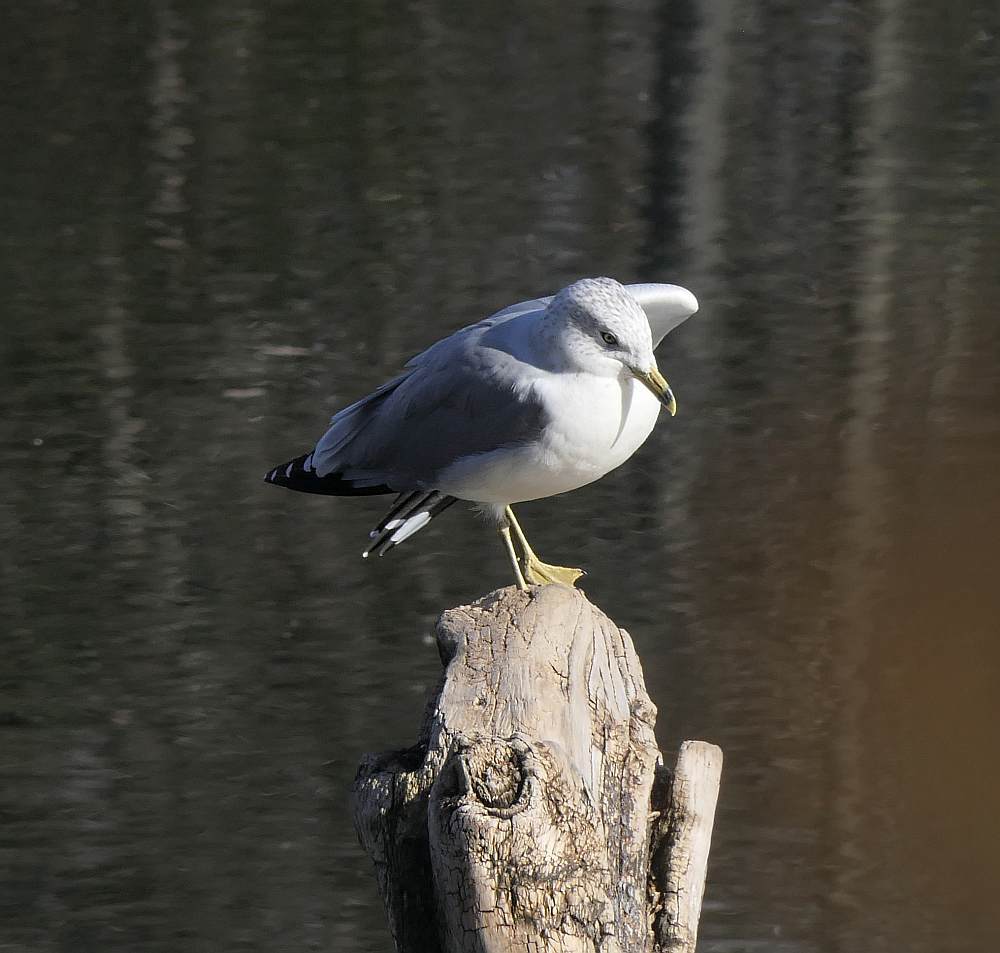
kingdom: Animalia
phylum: Chordata
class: Aves
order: Charadriiformes
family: Laridae
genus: Larus
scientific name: Larus delawarensis
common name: Ring-billed gull
